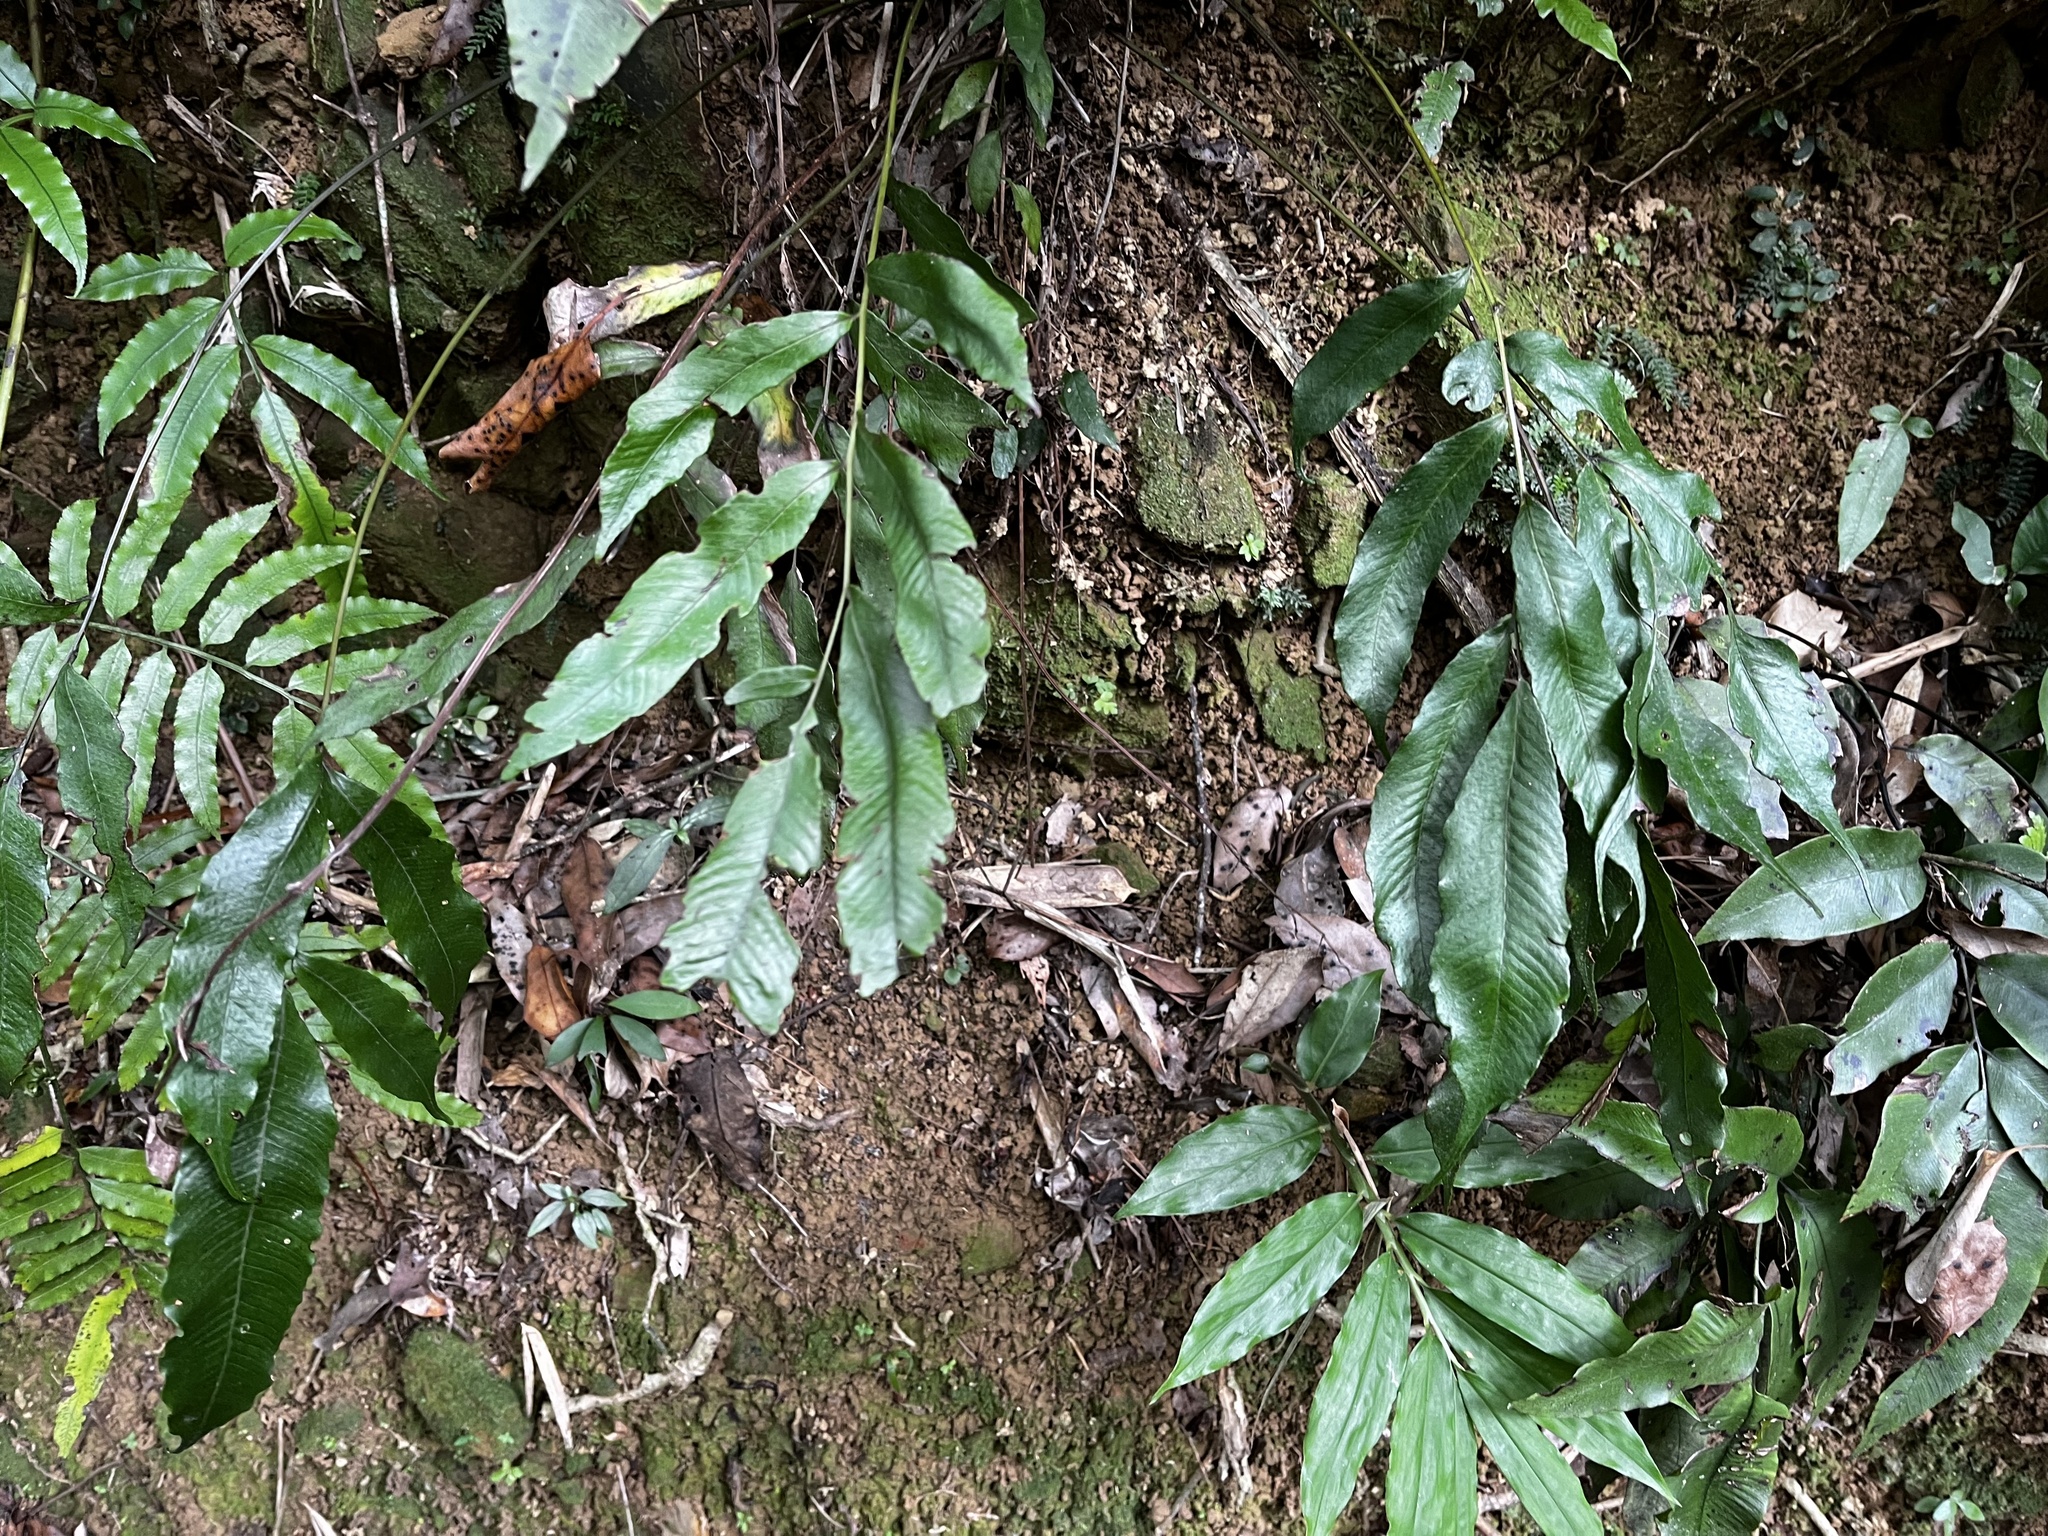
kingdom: Plantae
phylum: Tracheophyta
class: Polypodiopsida
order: Polypodiales
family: Thelypteridaceae
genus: Grypothrix
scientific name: Grypothrix ramosii
